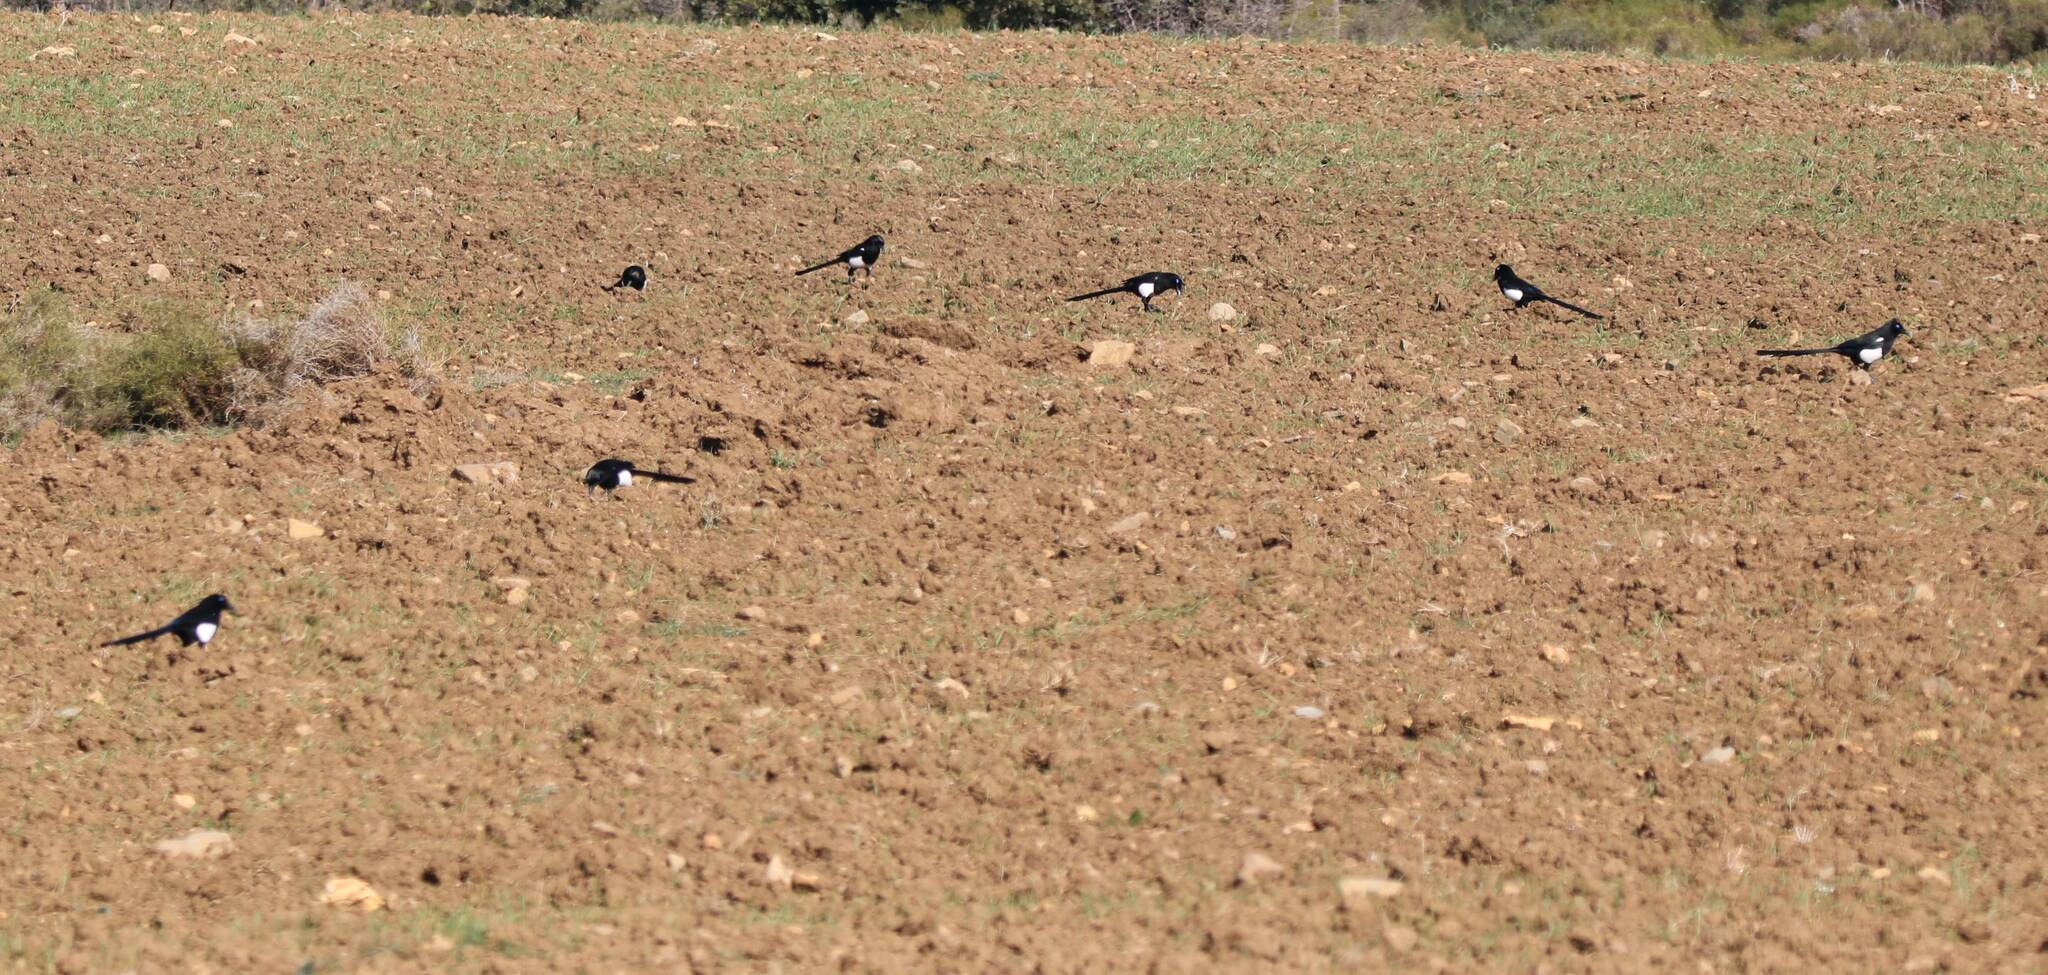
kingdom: Animalia
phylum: Chordata
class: Aves
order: Passeriformes
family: Corvidae
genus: Pica
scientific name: Pica mauritanica
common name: Maghreb magpie
